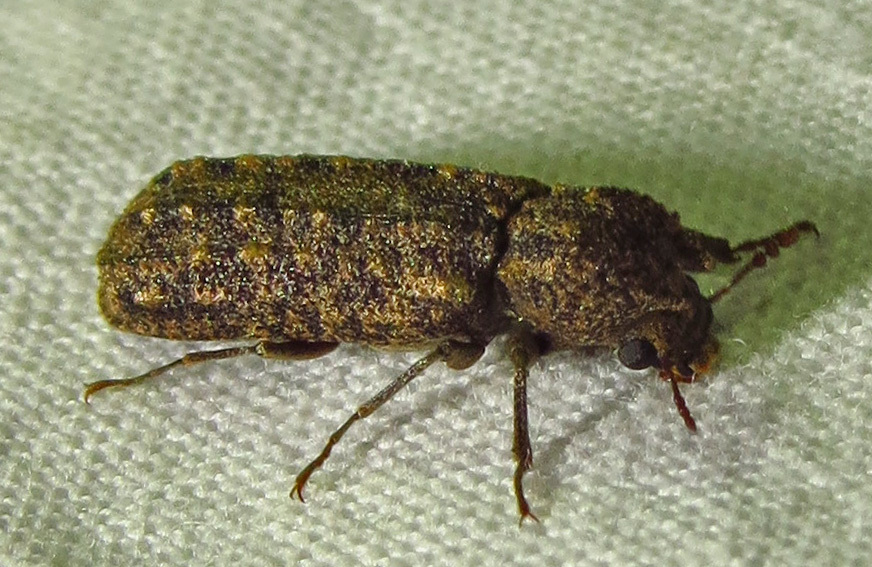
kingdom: Animalia
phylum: Arthropoda
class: Insecta
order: Coleoptera
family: Bostrichidae
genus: Lichenophanes
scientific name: Lichenophanes bicornis
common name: Two-horned powder-post beetle
